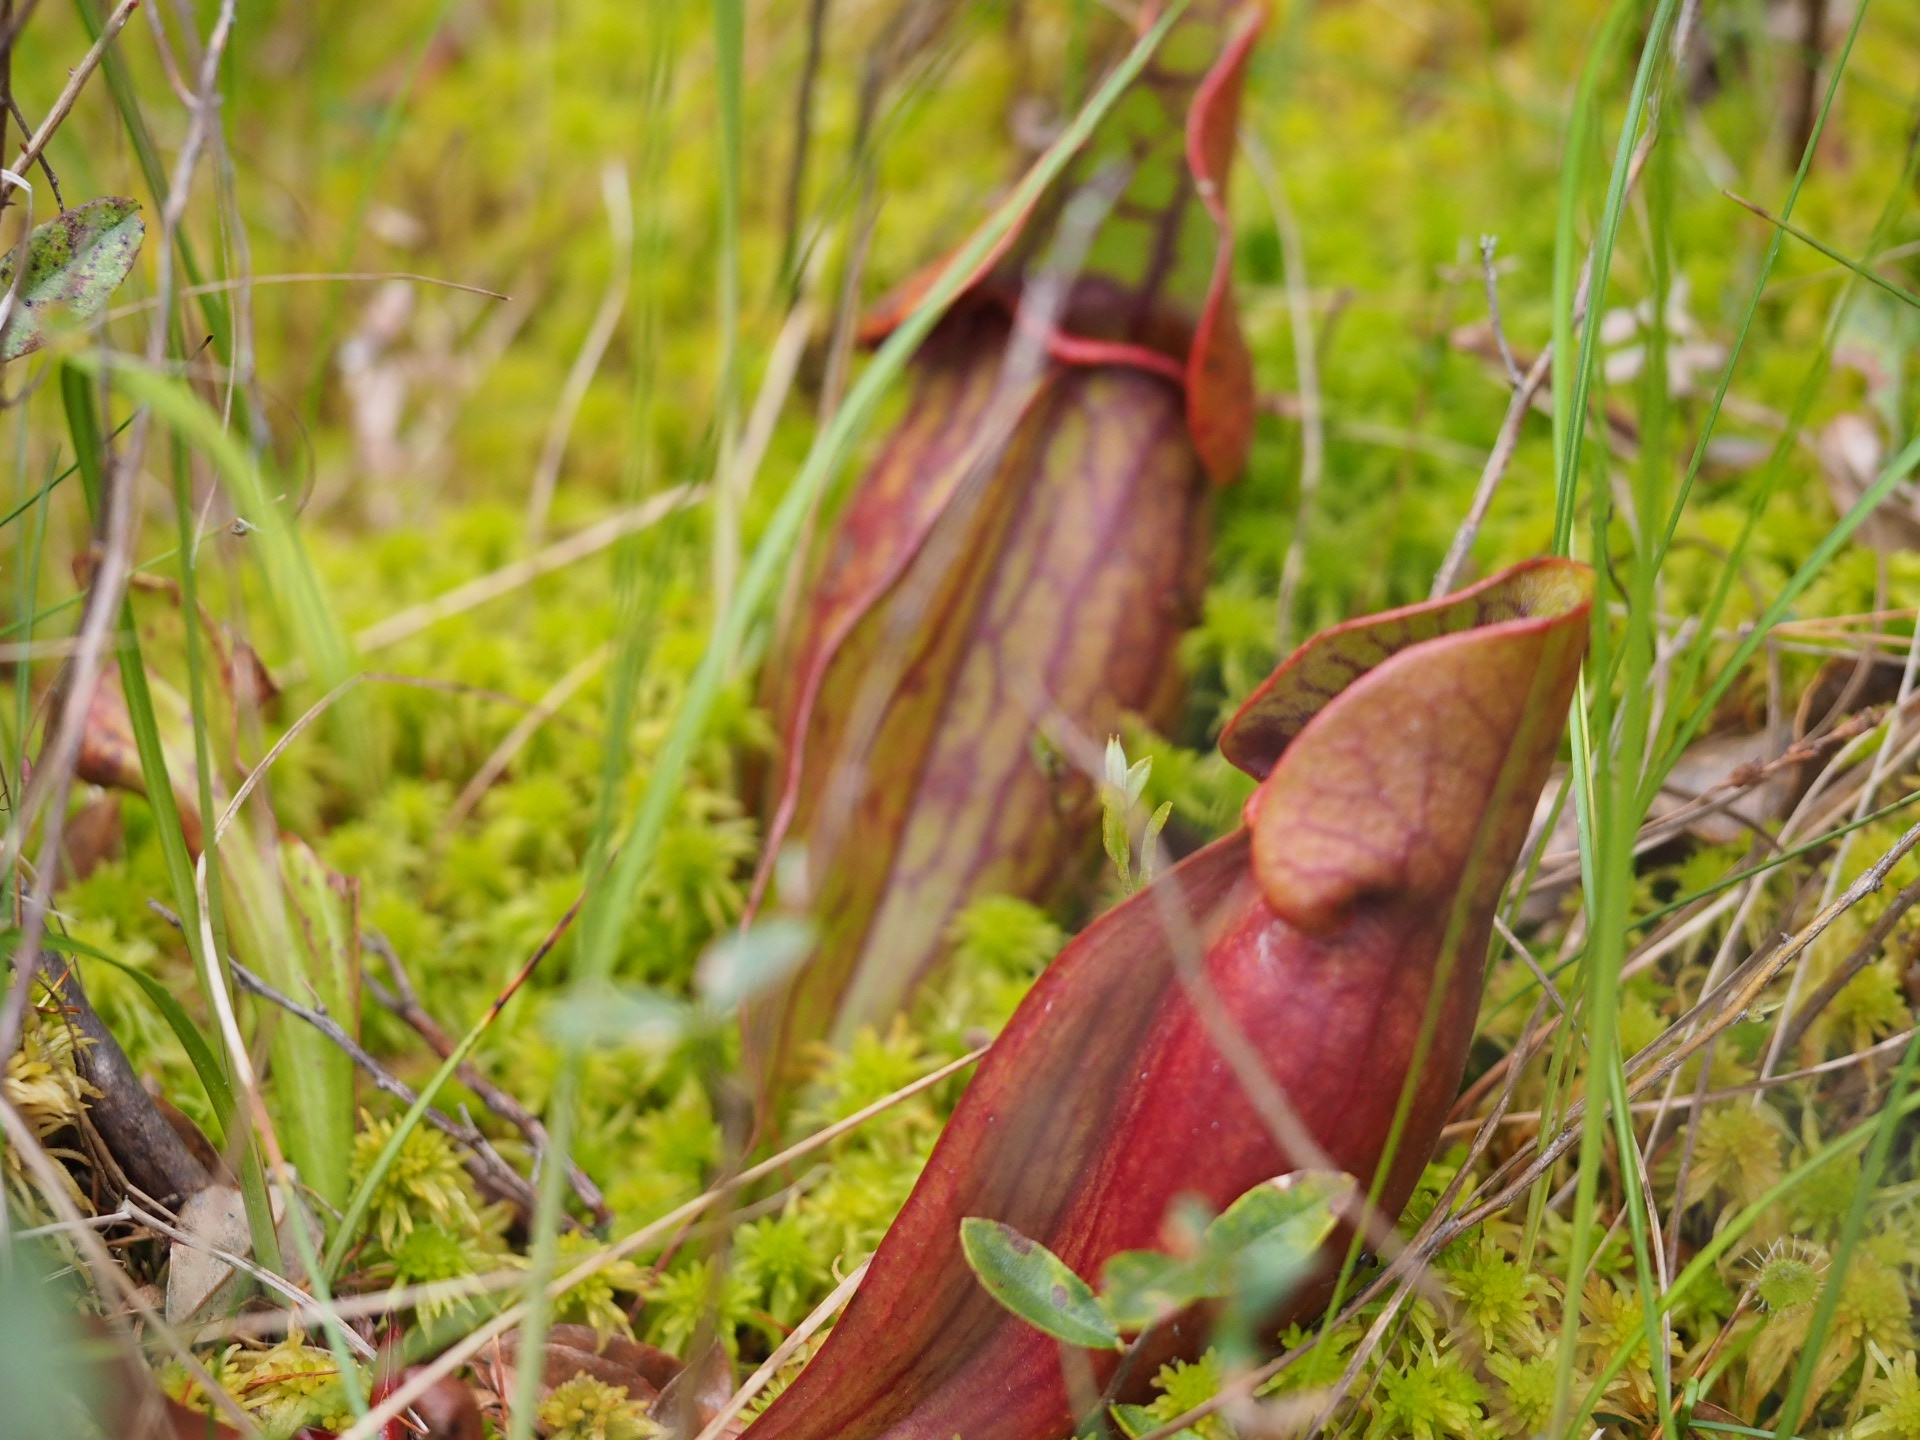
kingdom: Plantae
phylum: Tracheophyta
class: Magnoliopsida
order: Ericales
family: Sarraceniaceae
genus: Sarracenia
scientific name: Sarracenia purpurea
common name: Pitcherplant
